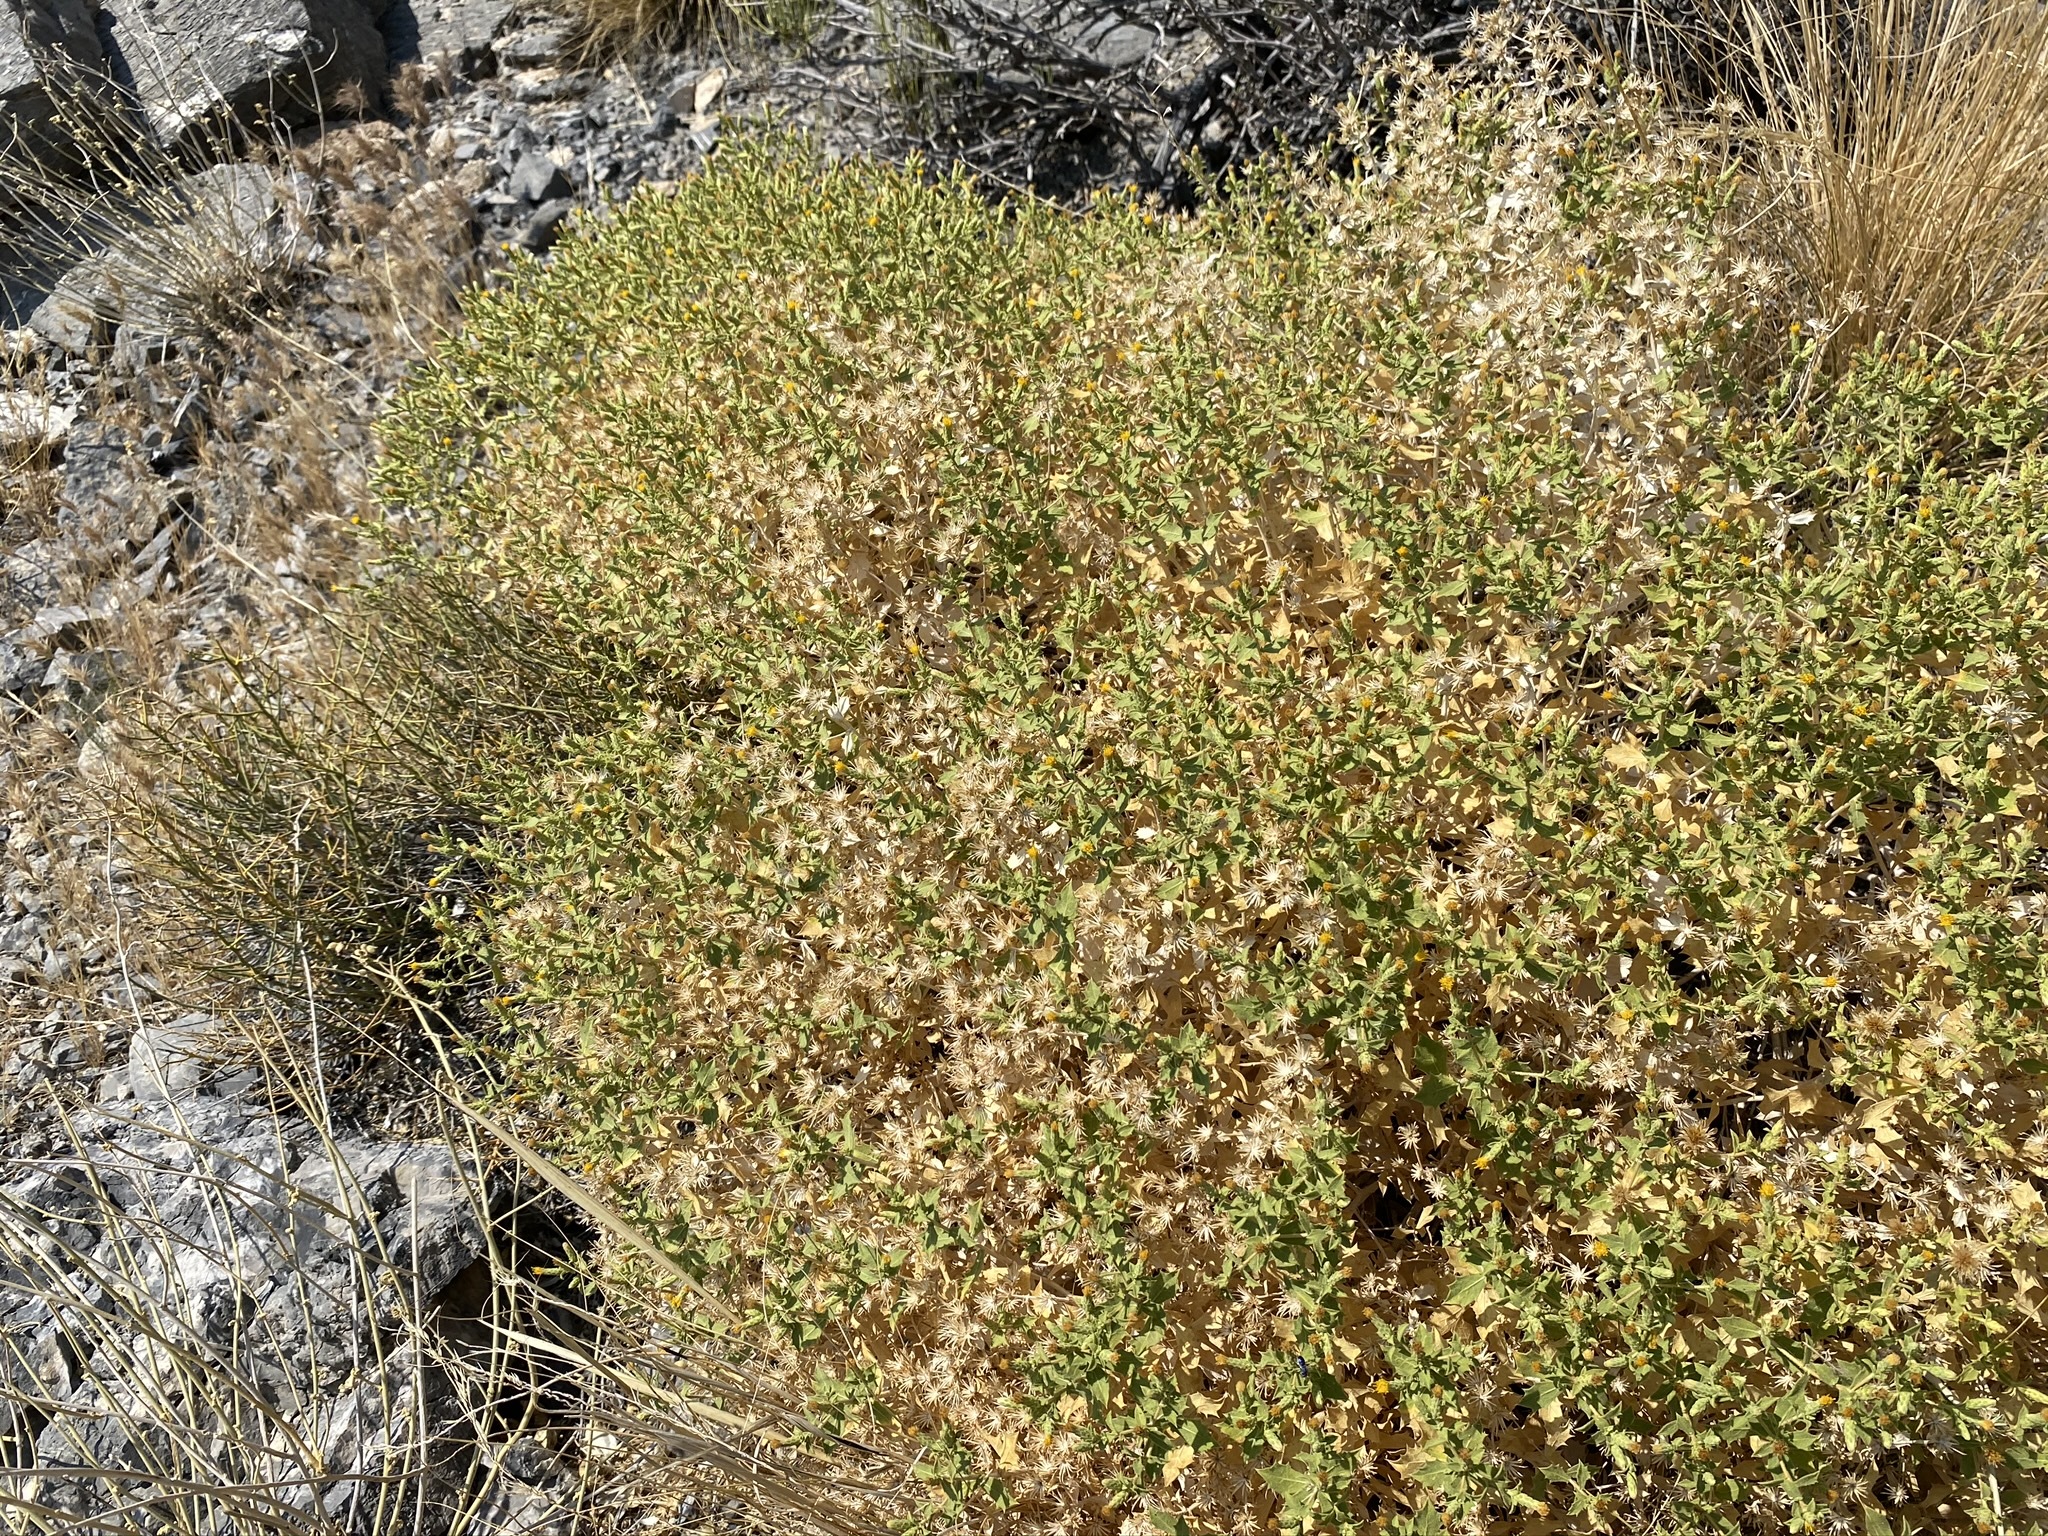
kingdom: Plantae
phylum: Tracheophyta
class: Magnoliopsida
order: Asterales
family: Asteraceae
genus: Adiaphila
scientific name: Adiaphila brickellioides
